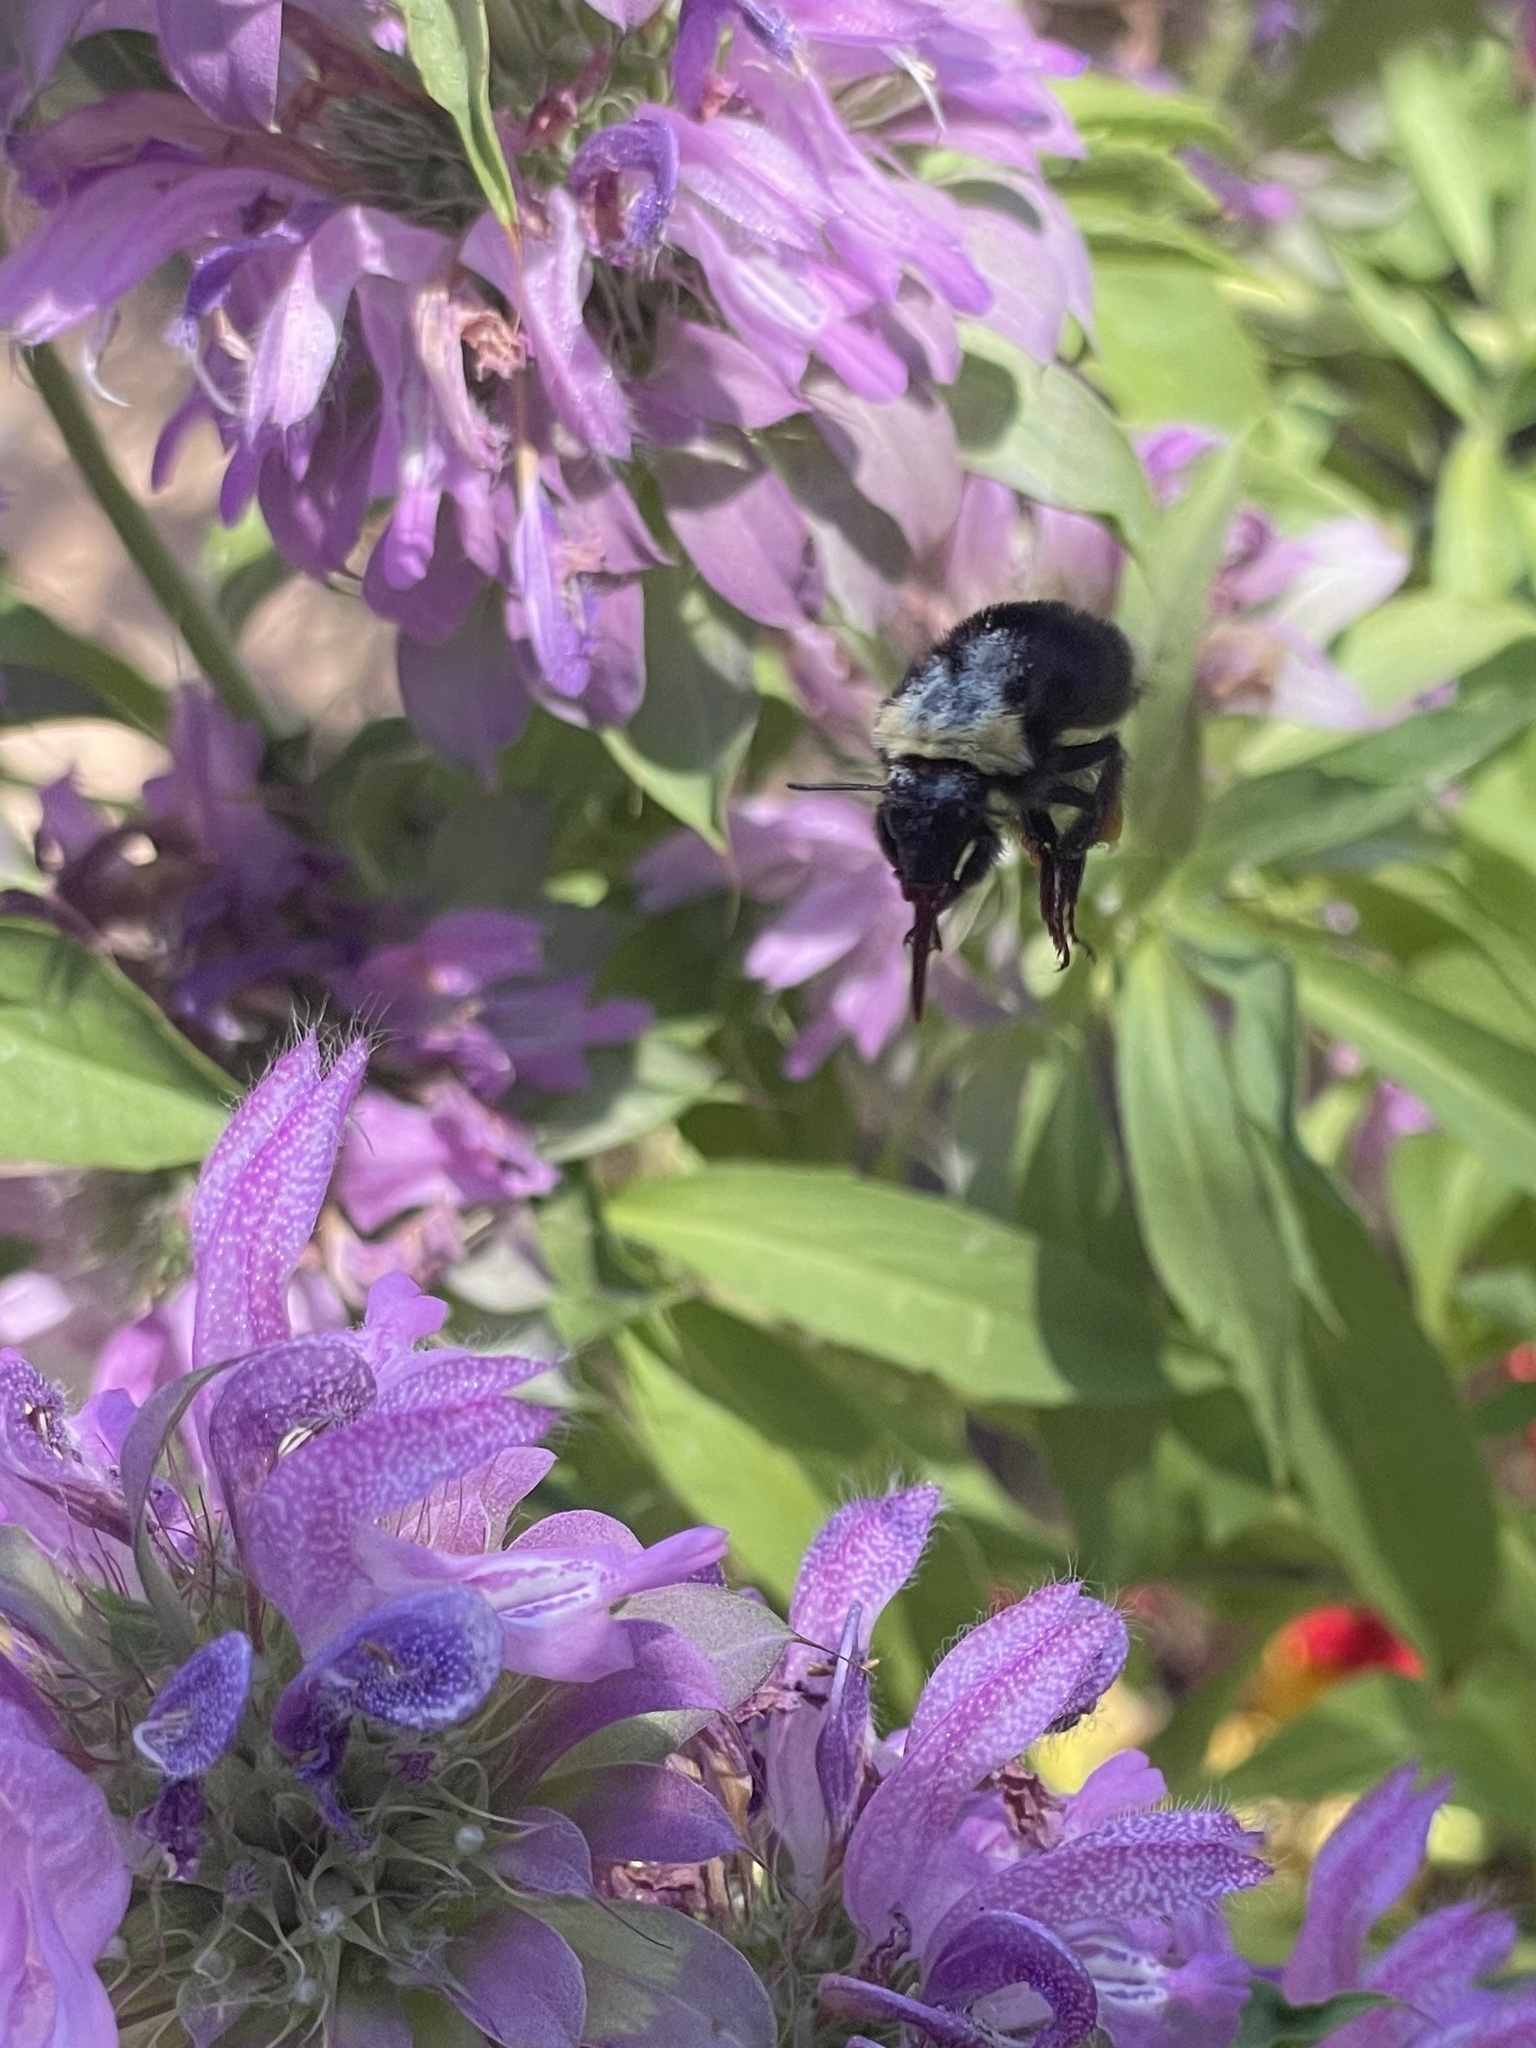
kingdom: Animalia
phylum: Arthropoda
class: Insecta
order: Hymenoptera
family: Apidae
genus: Bombus
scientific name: Bombus californicus
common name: California bumble bee
